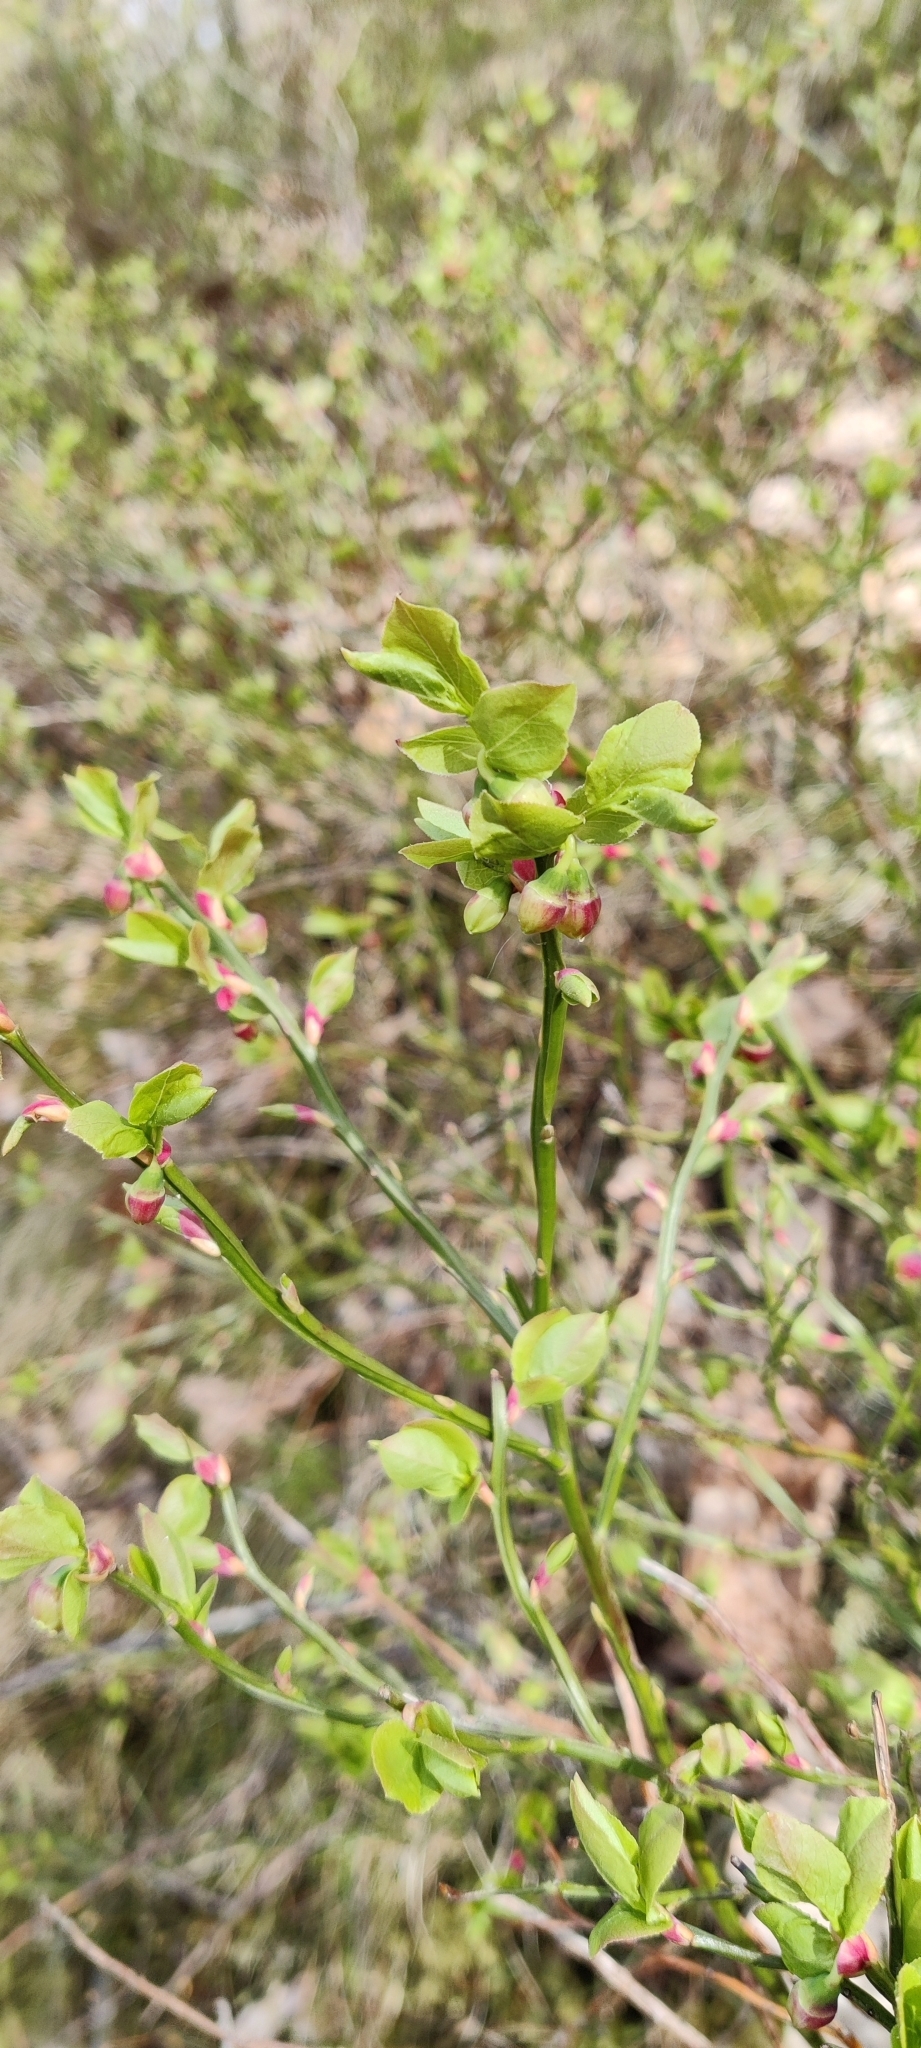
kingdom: Plantae
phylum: Tracheophyta
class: Magnoliopsida
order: Ericales
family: Ericaceae
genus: Vaccinium
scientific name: Vaccinium myrtillus
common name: Bilberry
